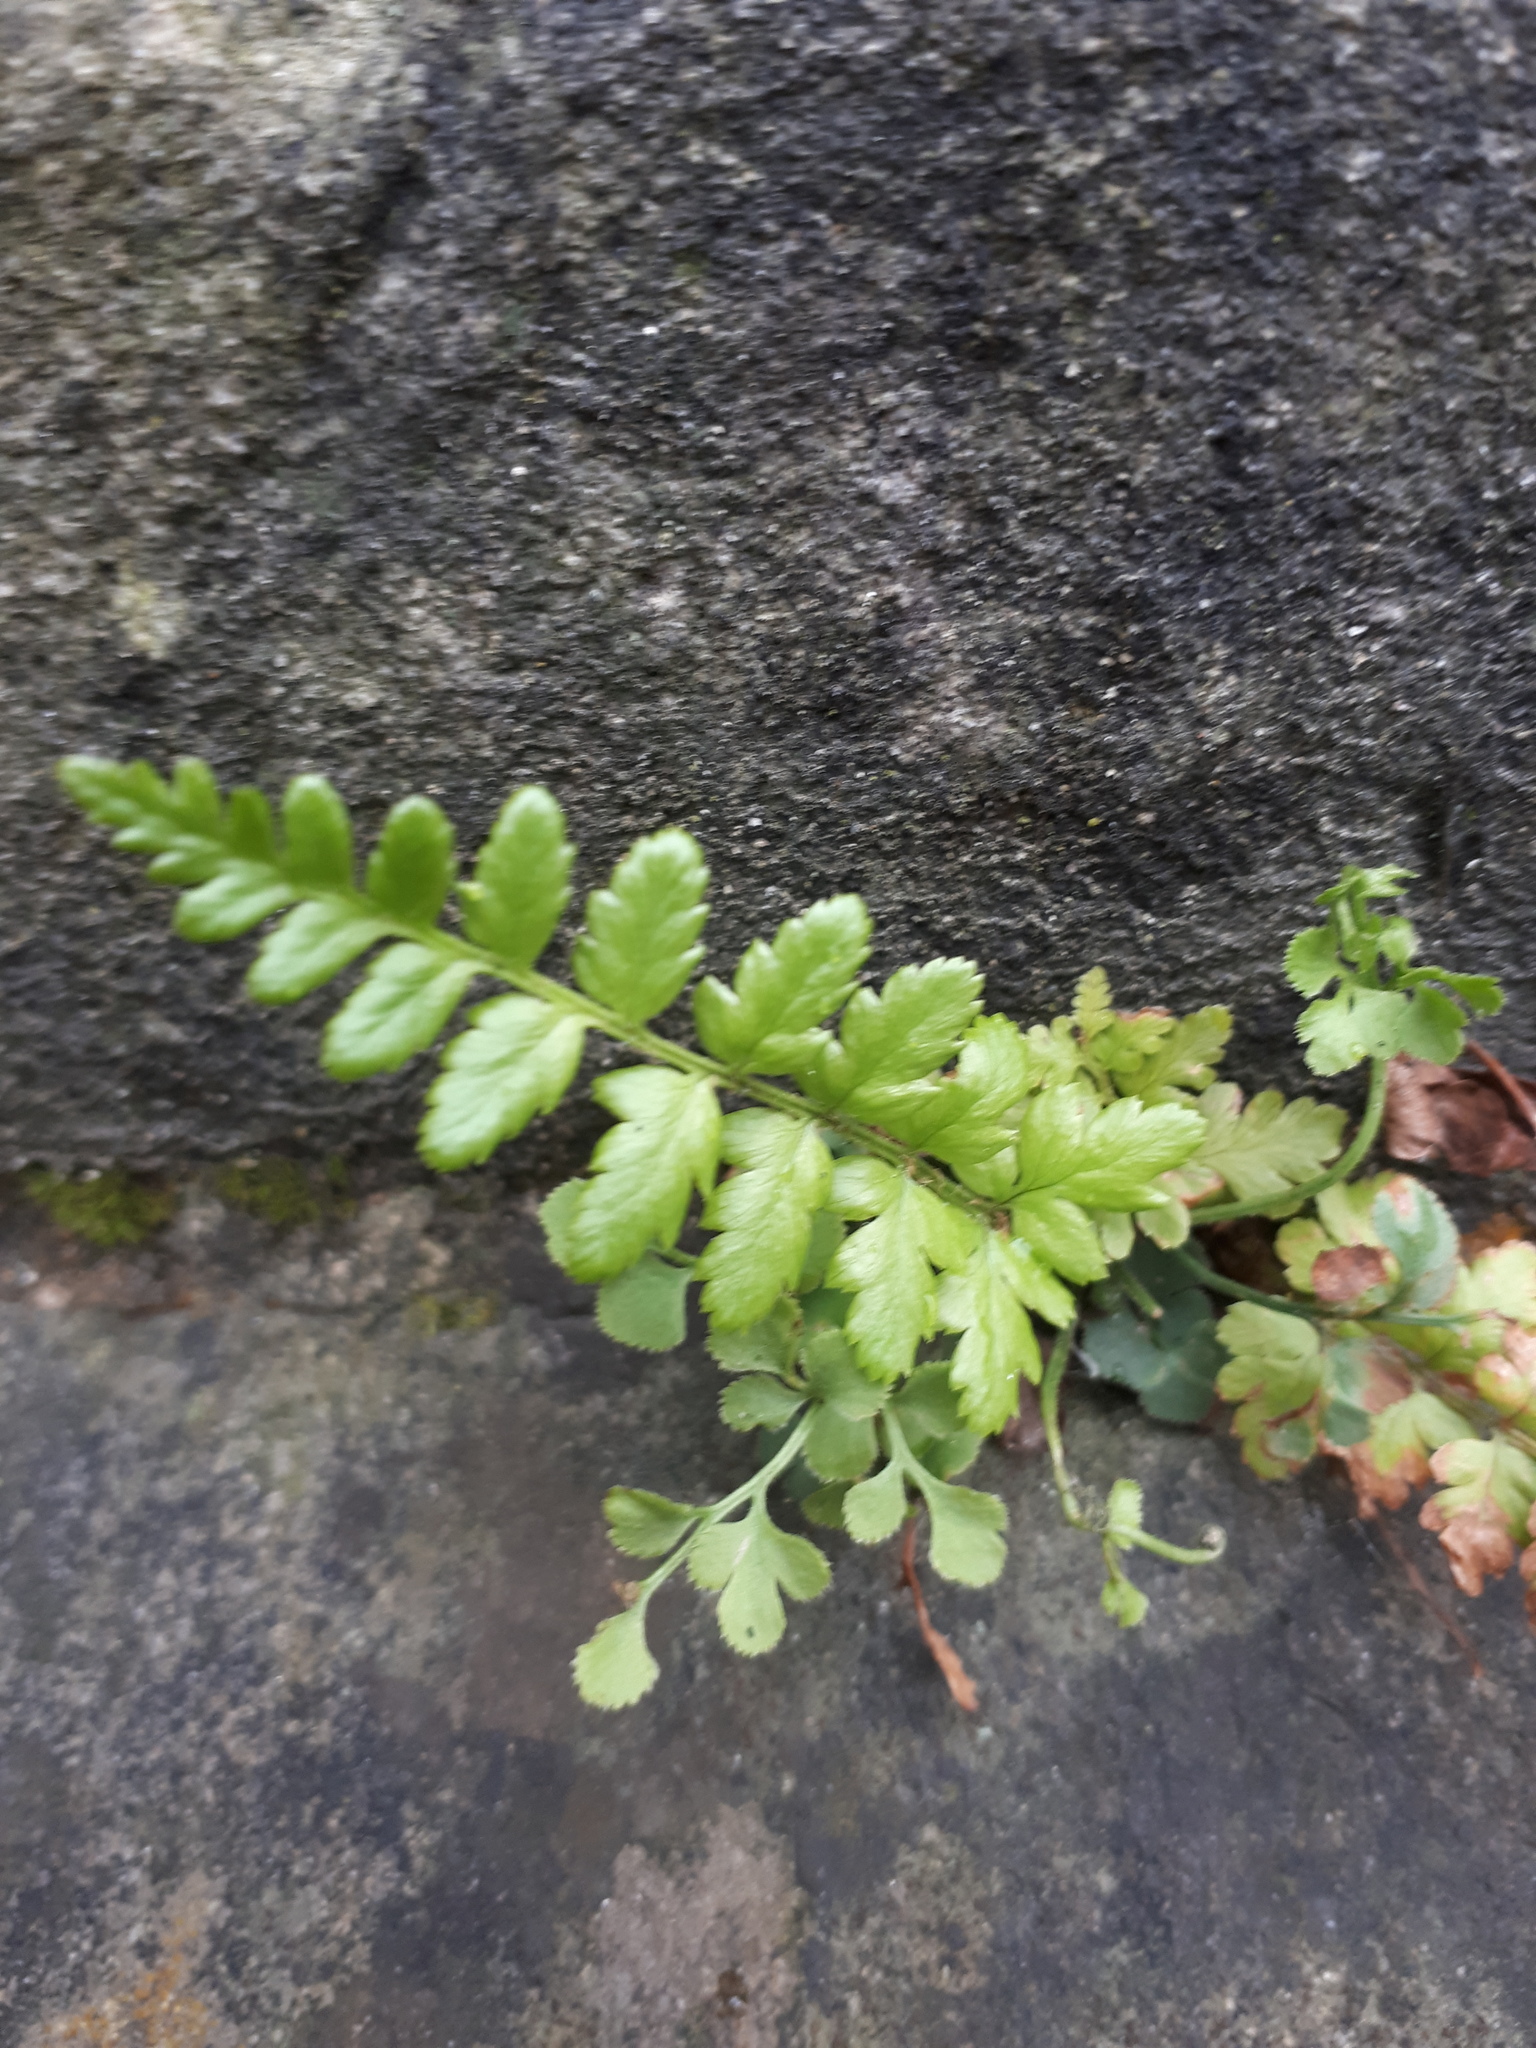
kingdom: Plantae
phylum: Tracheophyta
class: Polypodiopsida
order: Polypodiales
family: Aspleniaceae
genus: Asplenium
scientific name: Asplenium ruta-muraria
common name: Wall-rue
